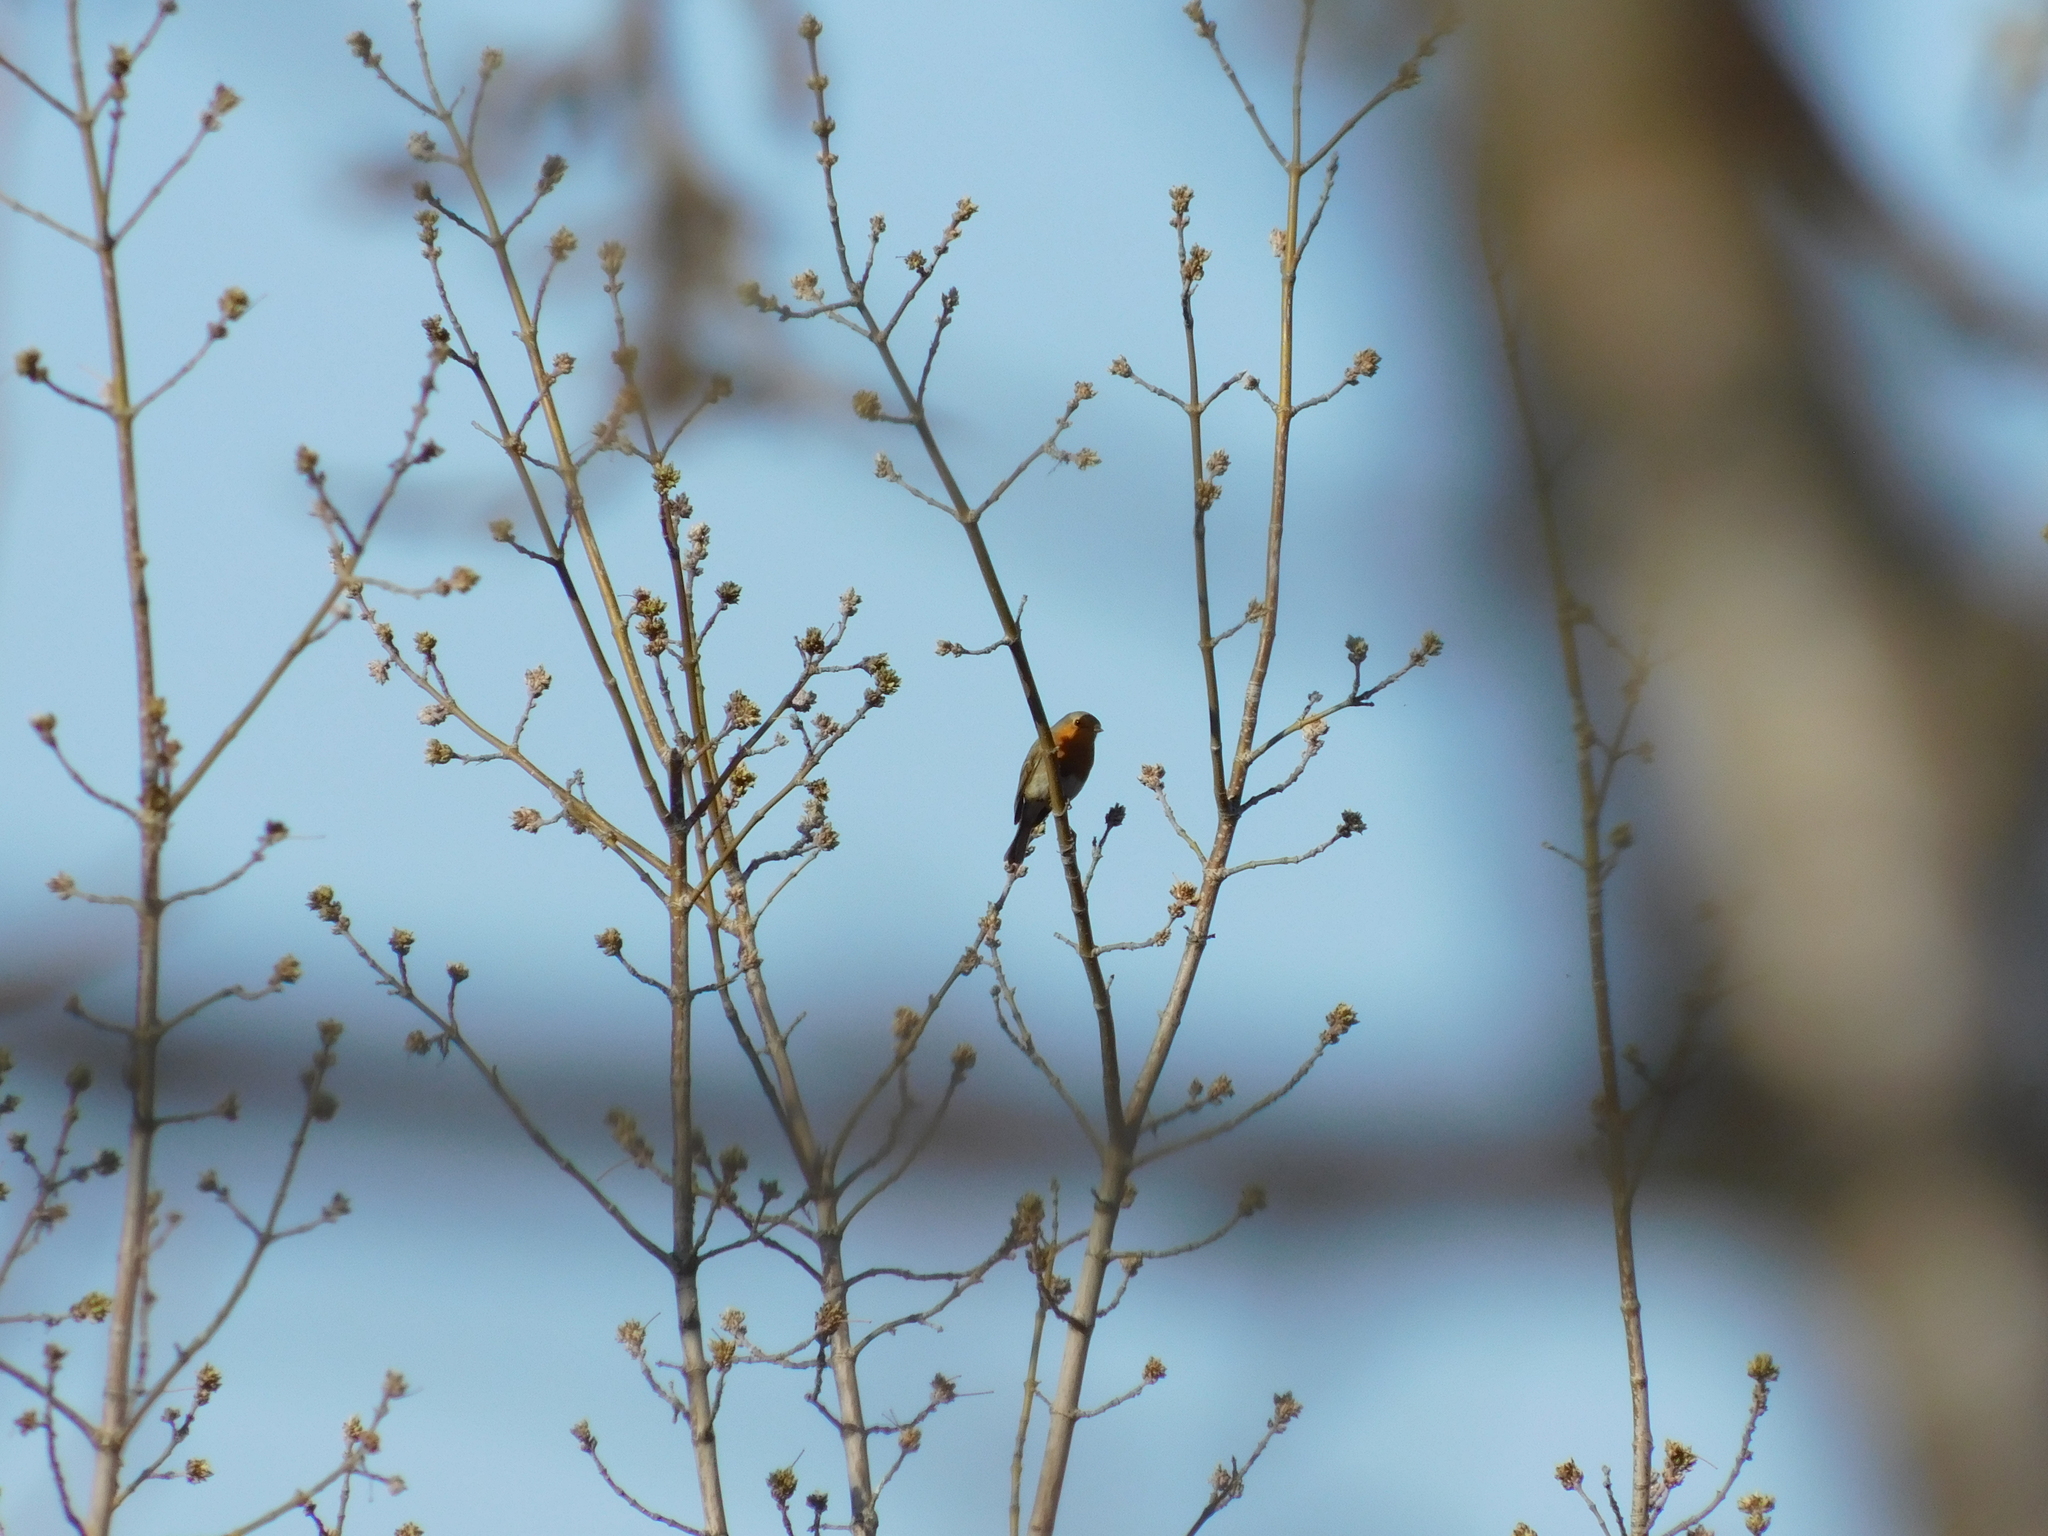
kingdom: Animalia
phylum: Chordata
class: Aves
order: Passeriformes
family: Muscicapidae
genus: Erithacus
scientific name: Erithacus rubecula
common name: European robin
